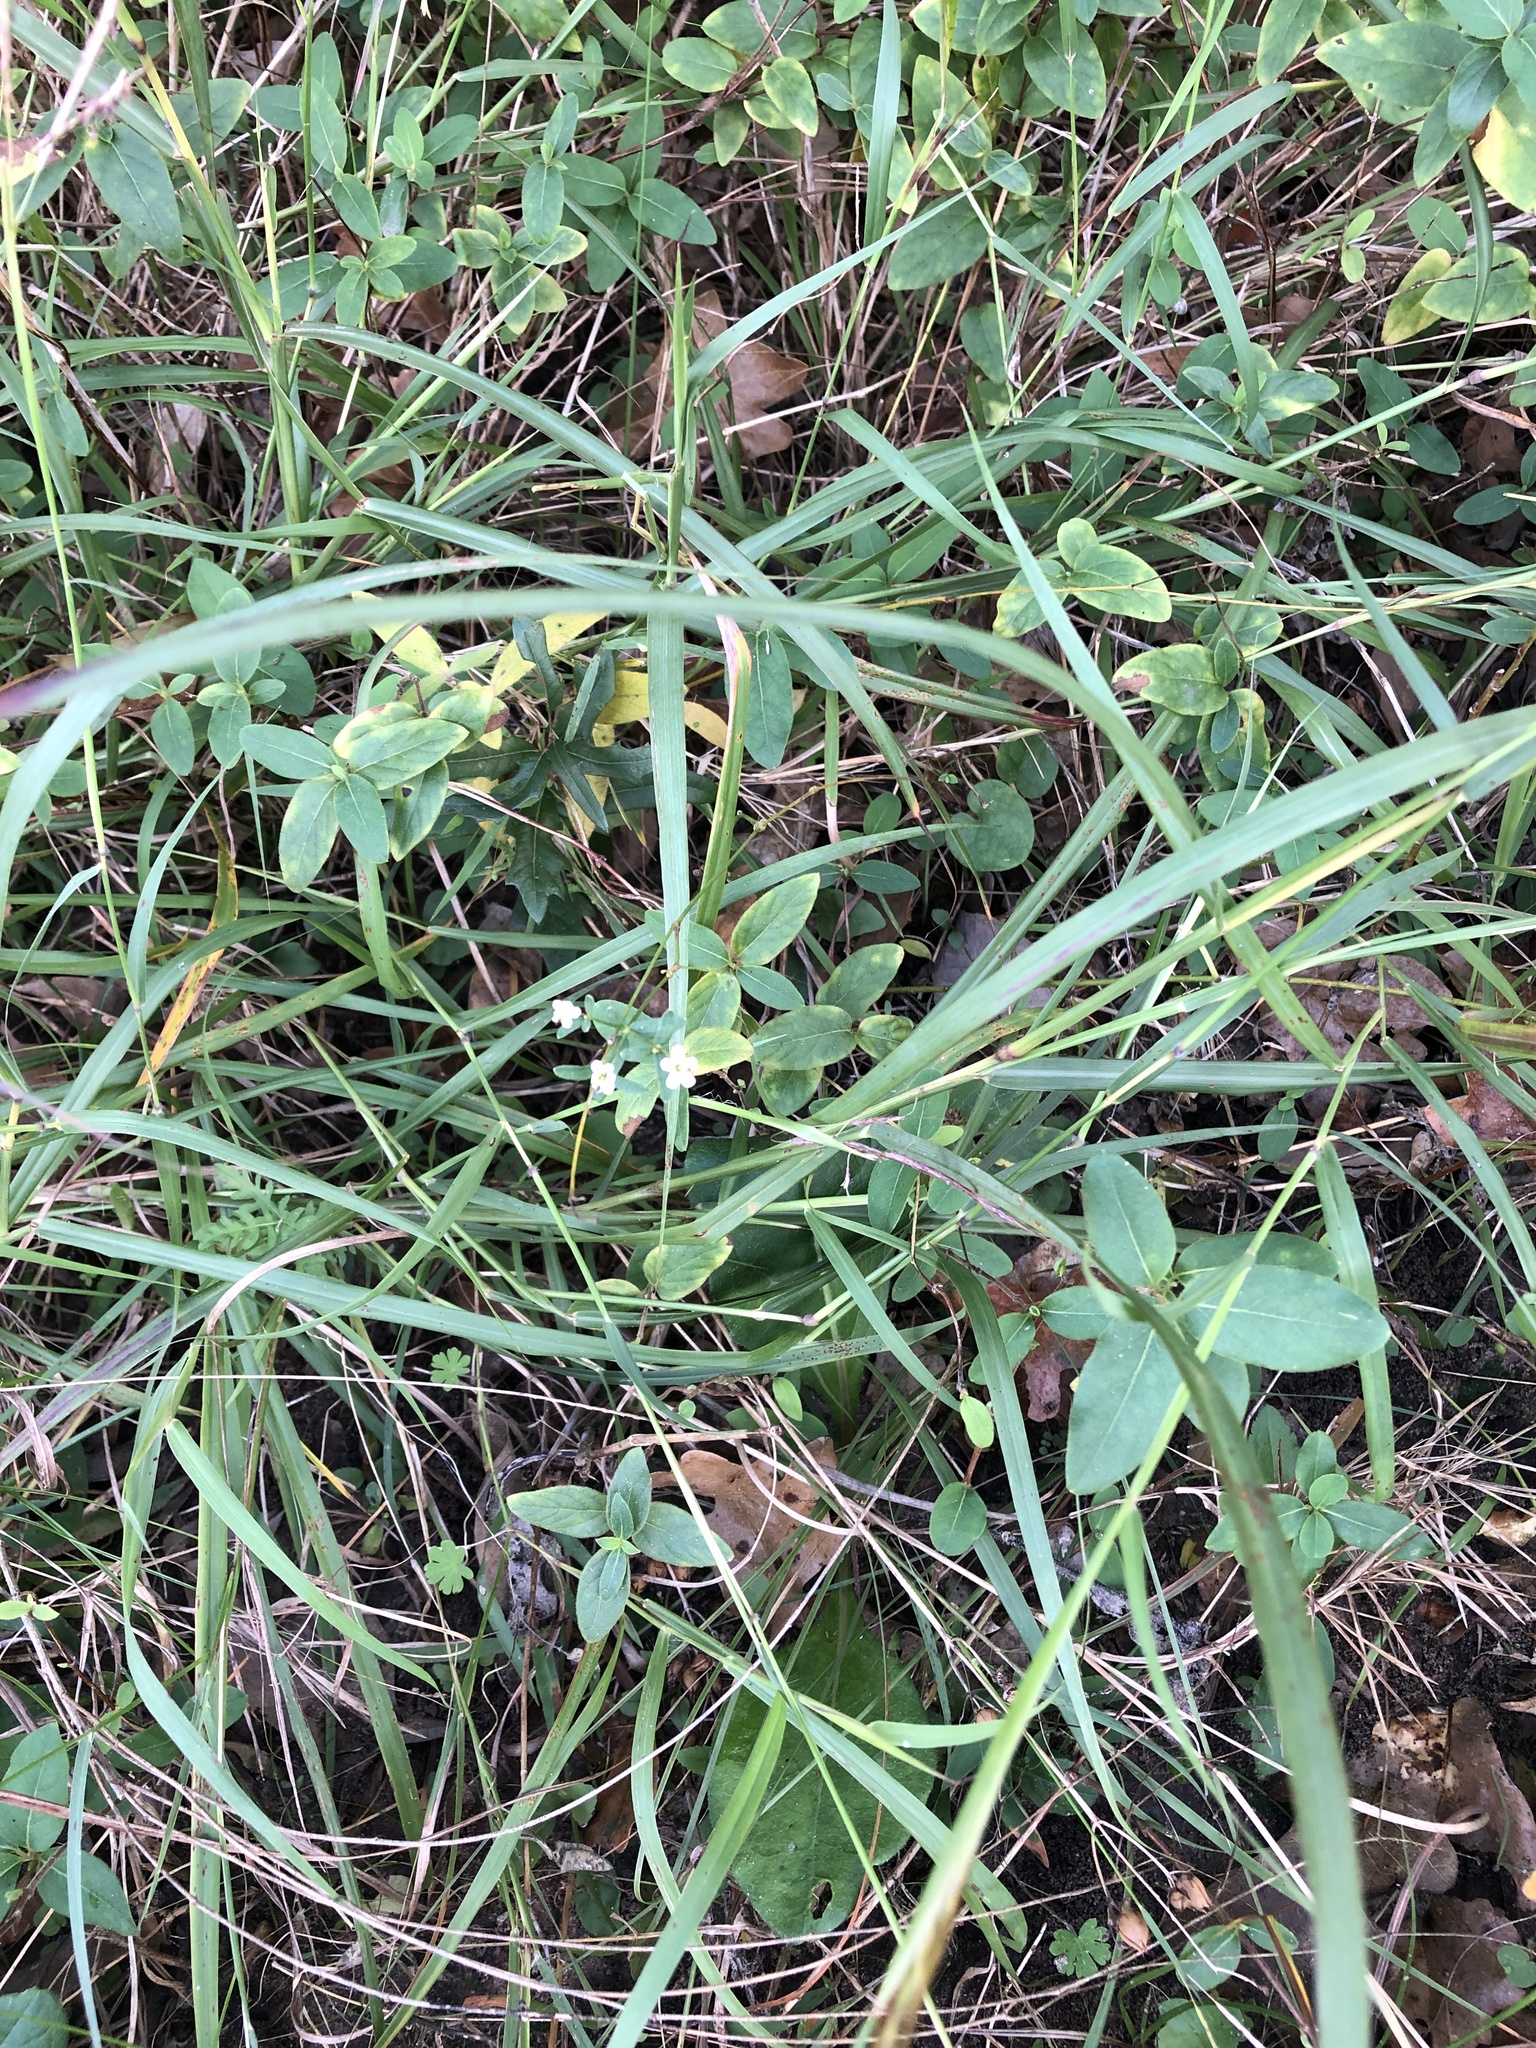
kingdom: Plantae
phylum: Tracheophyta
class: Magnoliopsida
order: Malpighiales
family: Euphorbiaceae
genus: Euphorbia
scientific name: Euphorbia corollata
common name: Flowering spurge
